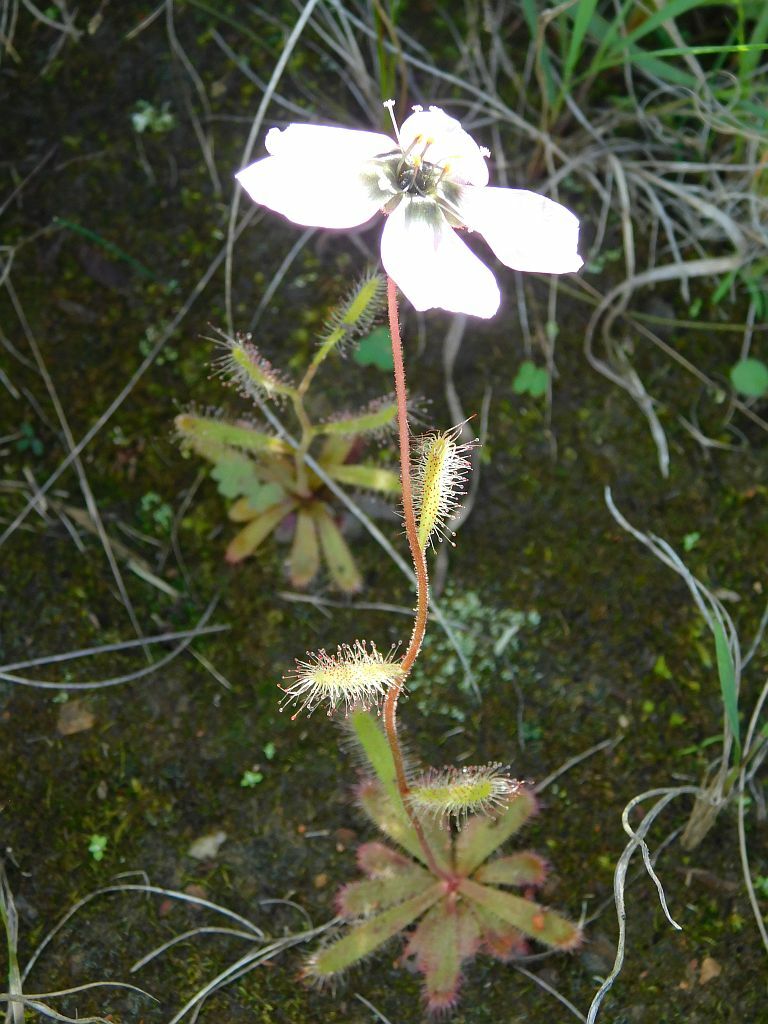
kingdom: Plantae
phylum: Tracheophyta
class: Magnoliopsida
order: Caryophyllales
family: Droseraceae
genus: Drosera
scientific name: Drosera cistiflora
